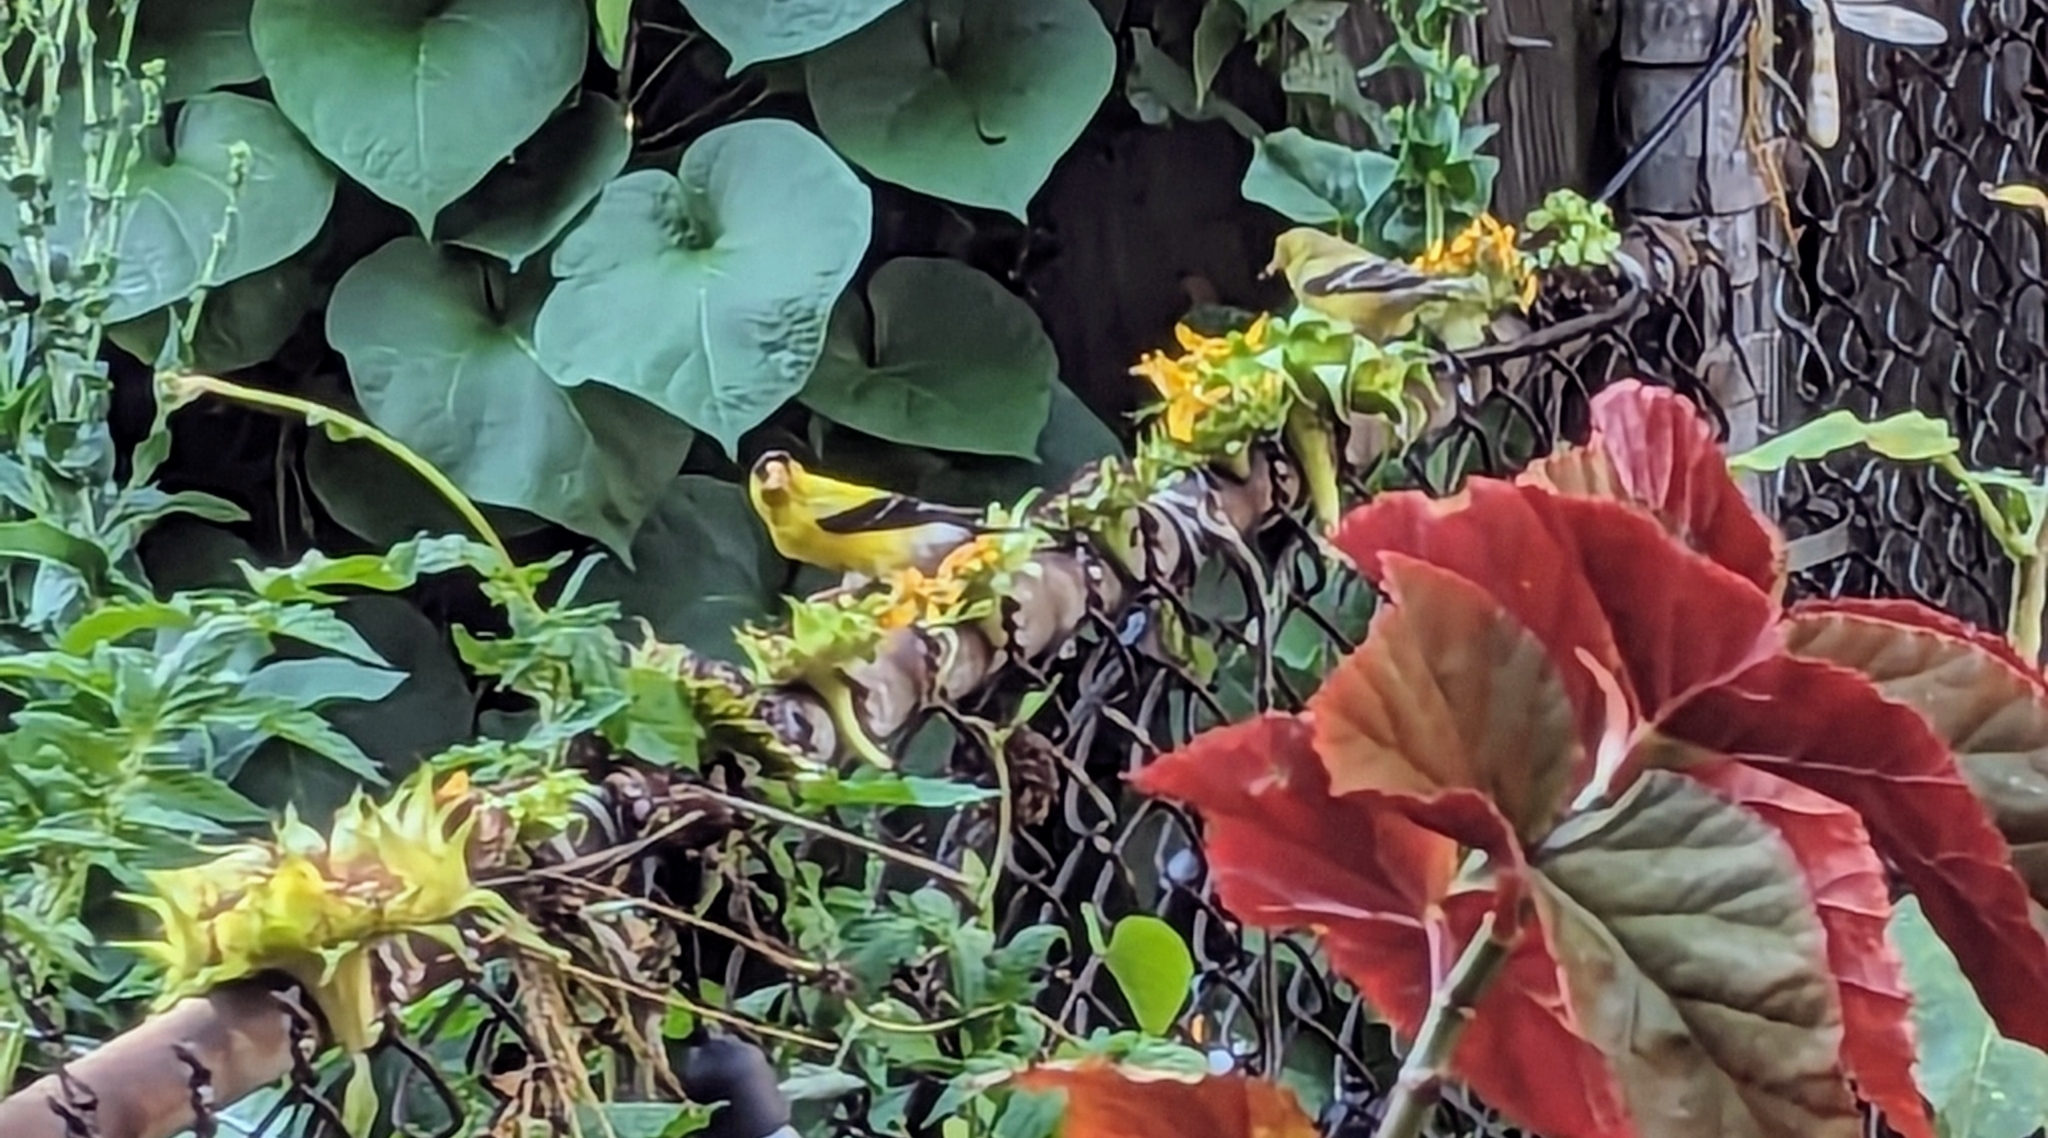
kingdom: Animalia
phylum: Chordata
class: Aves
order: Passeriformes
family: Fringillidae
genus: Spinus
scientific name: Spinus tristis
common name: American goldfinch
